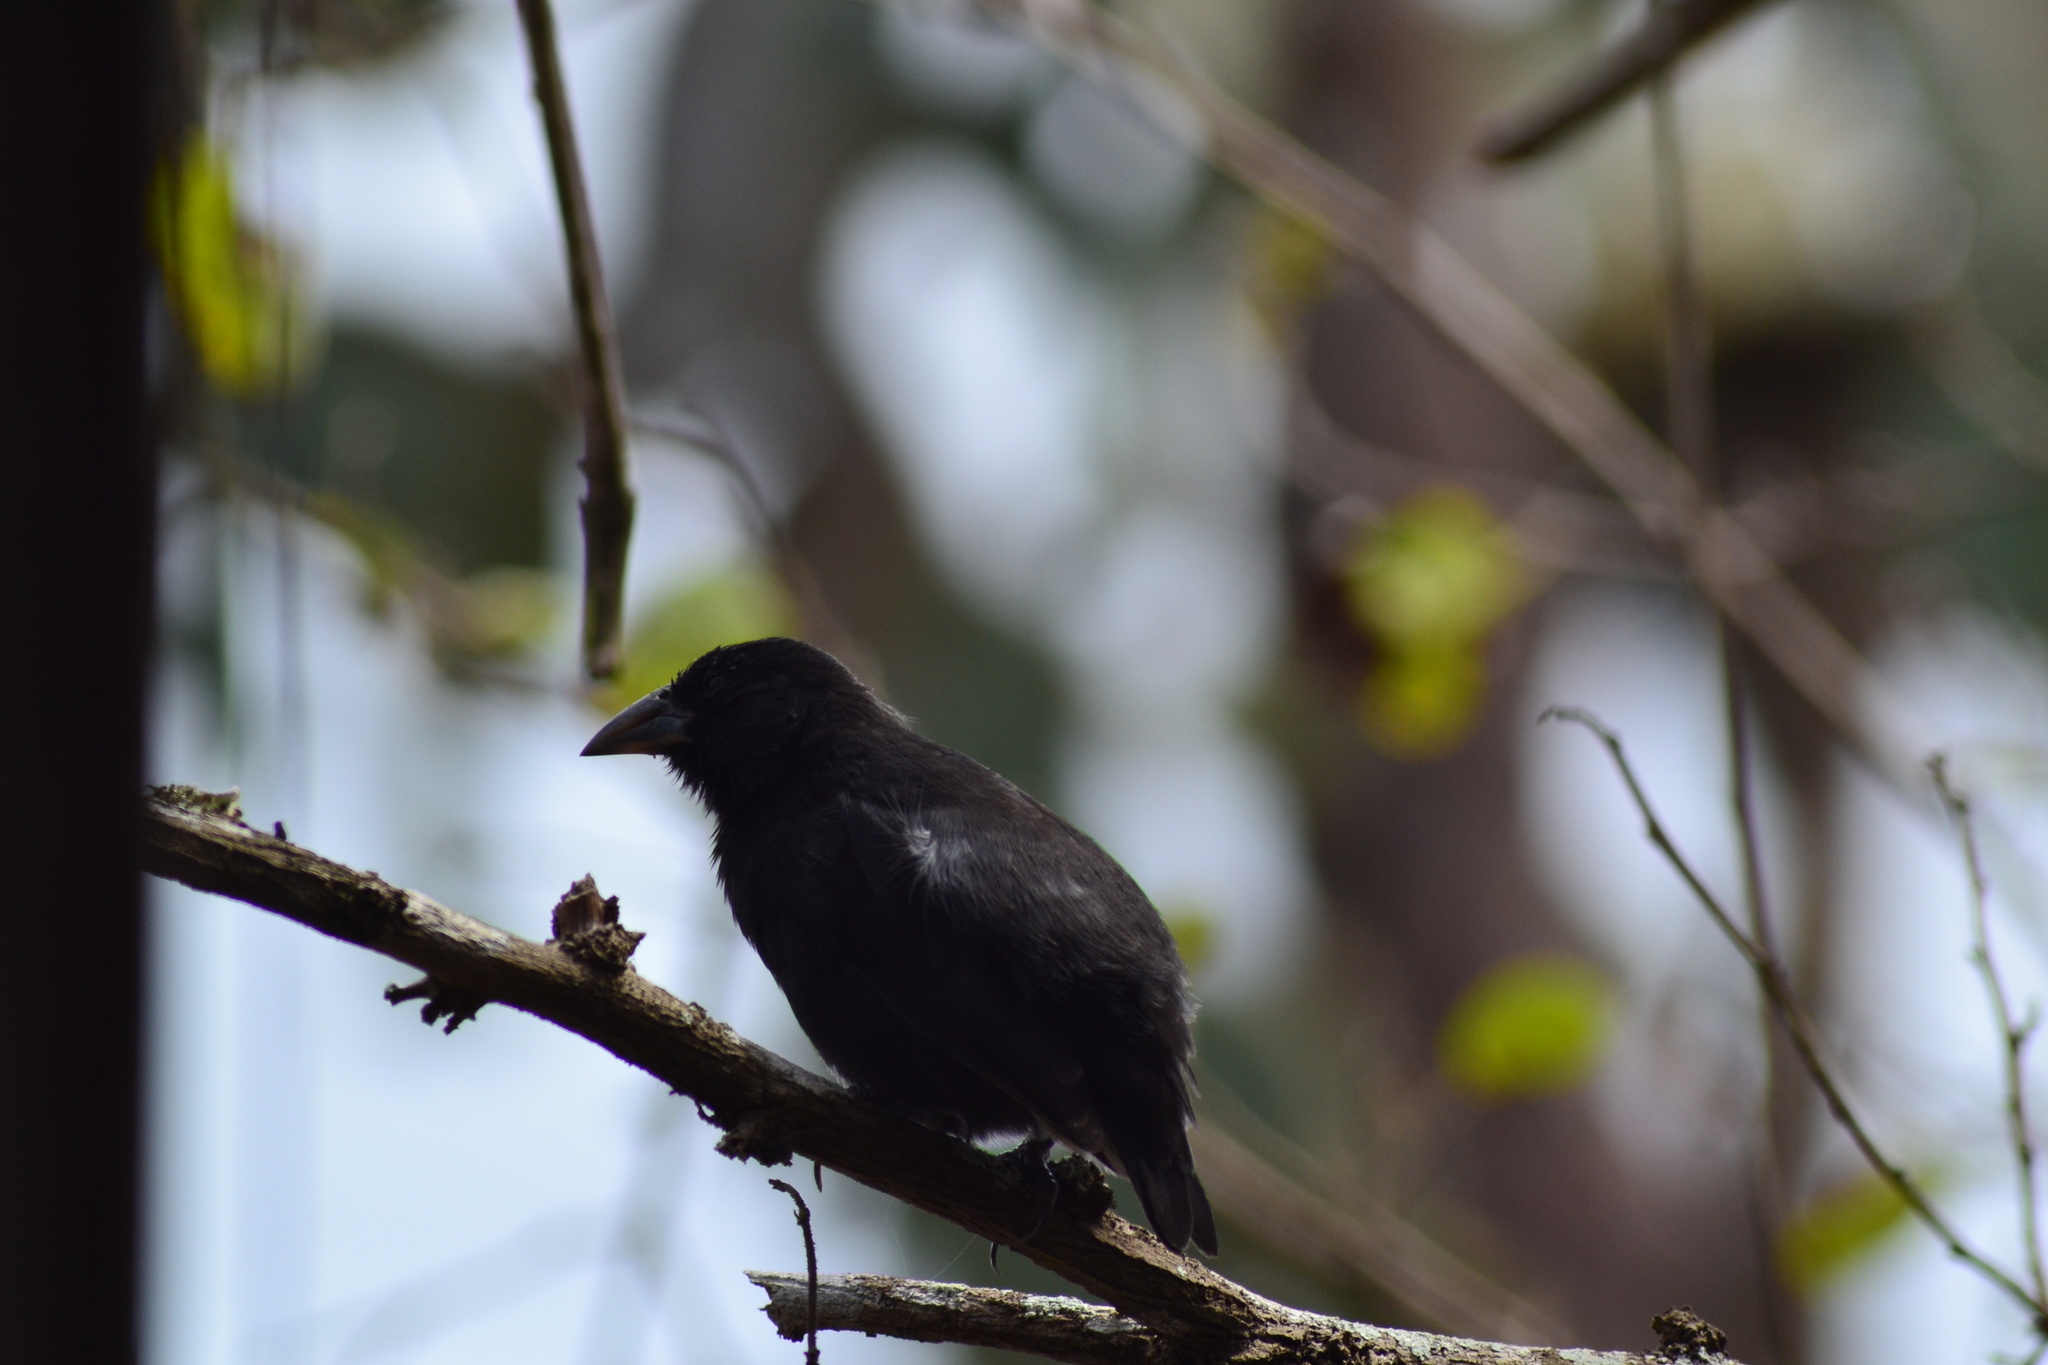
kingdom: Animalia
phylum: Chordata
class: Aves
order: Passeriformes
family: Thraupidae
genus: Geospiza
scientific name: Geospiza scandens
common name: Common cactus-finch
